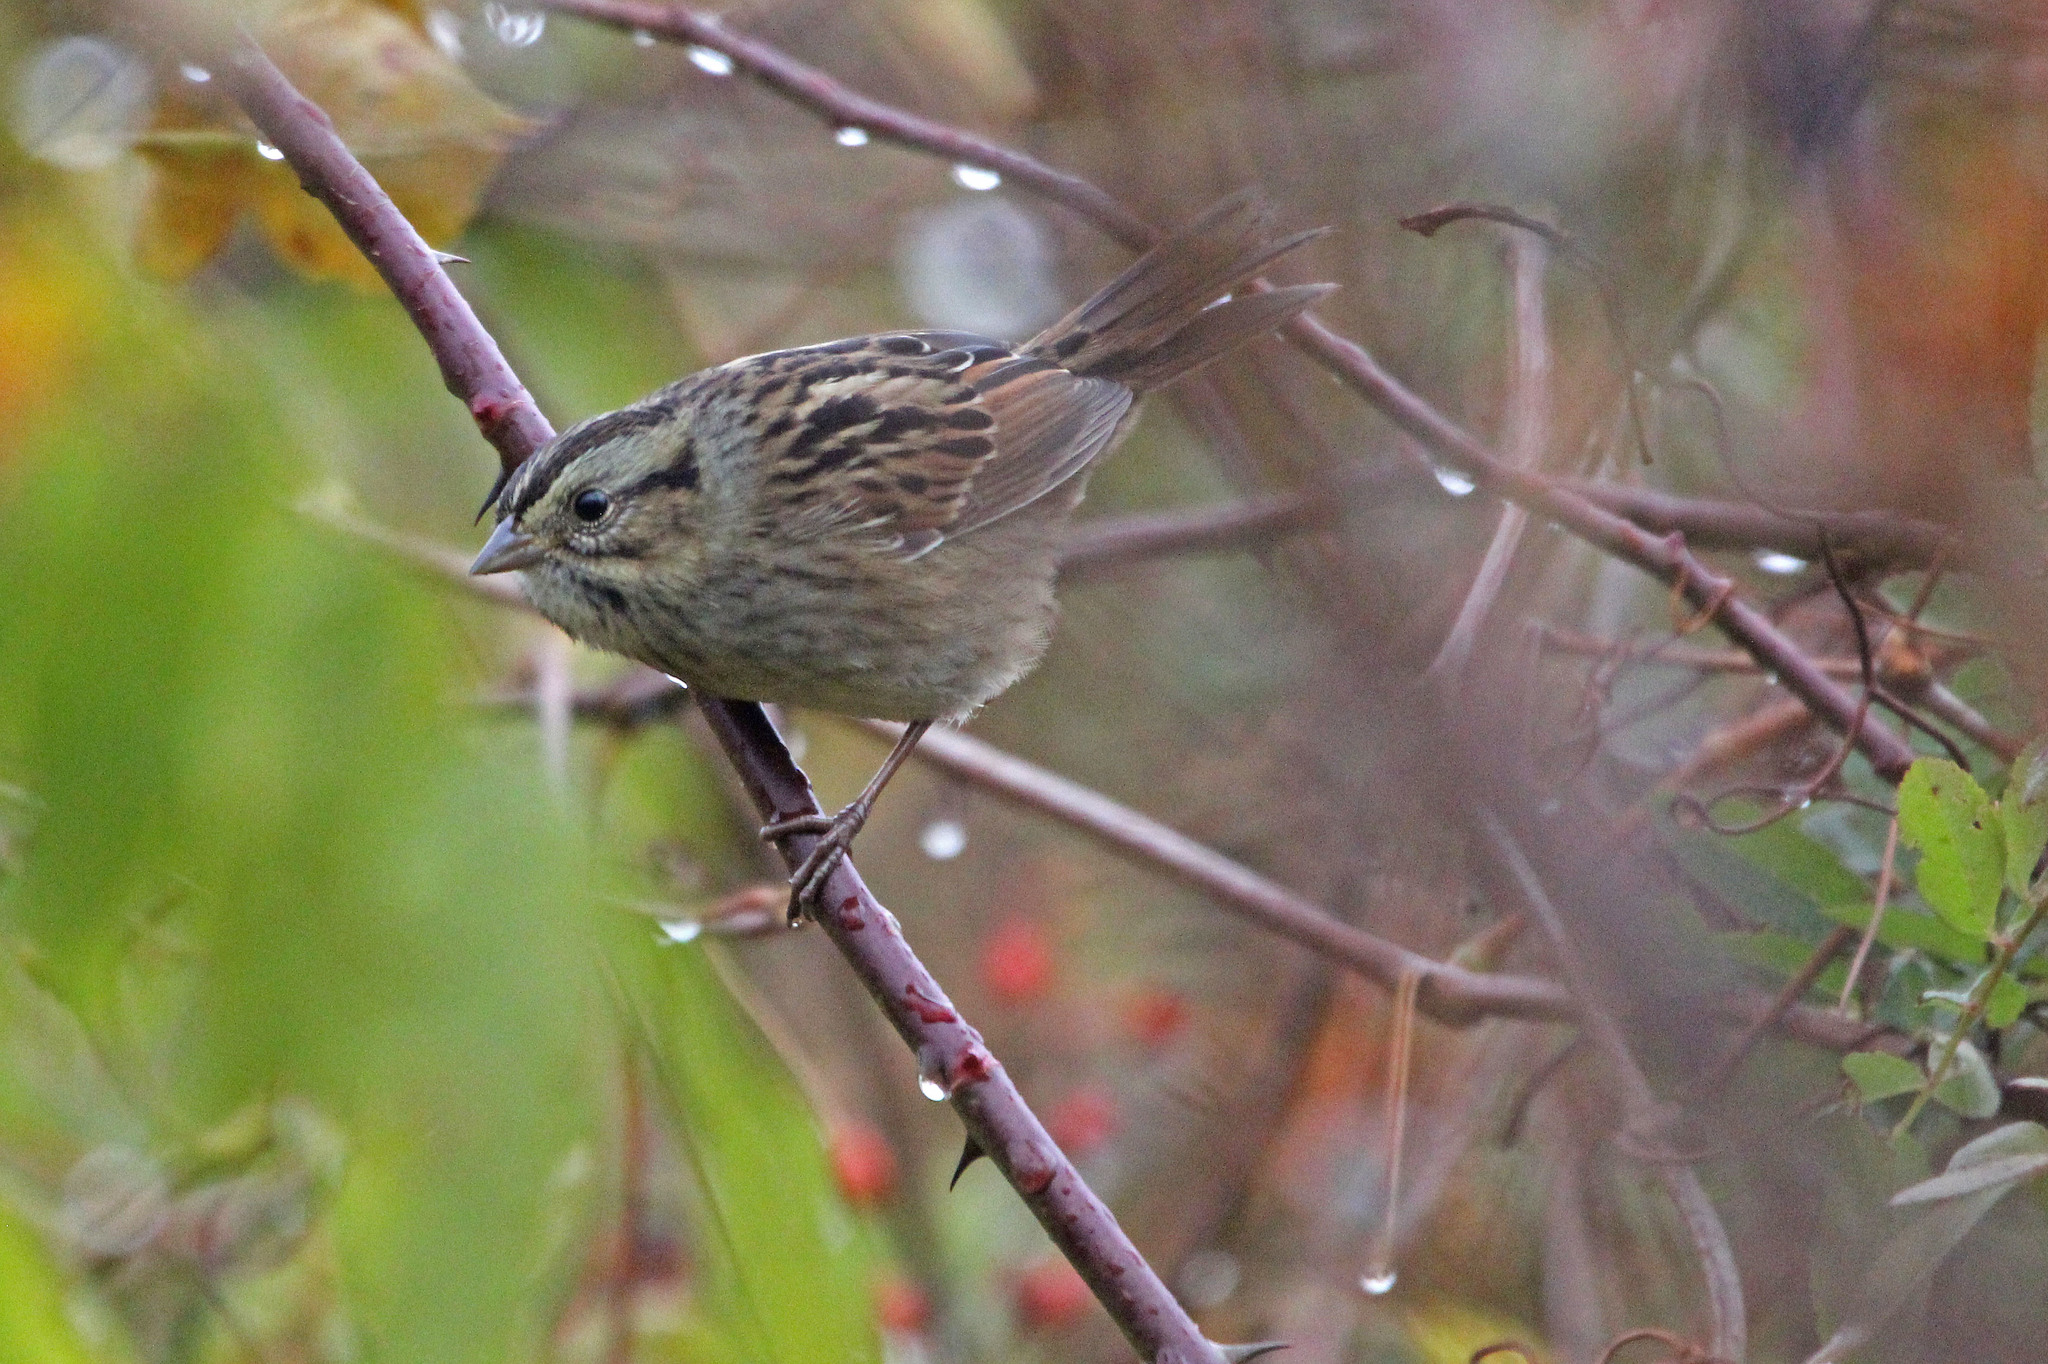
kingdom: Animalia
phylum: Chordata
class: Aves
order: Passeriformes
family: Passerellidae
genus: Melospiza
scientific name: Melospiza georgiana
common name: Swamp sparrow
